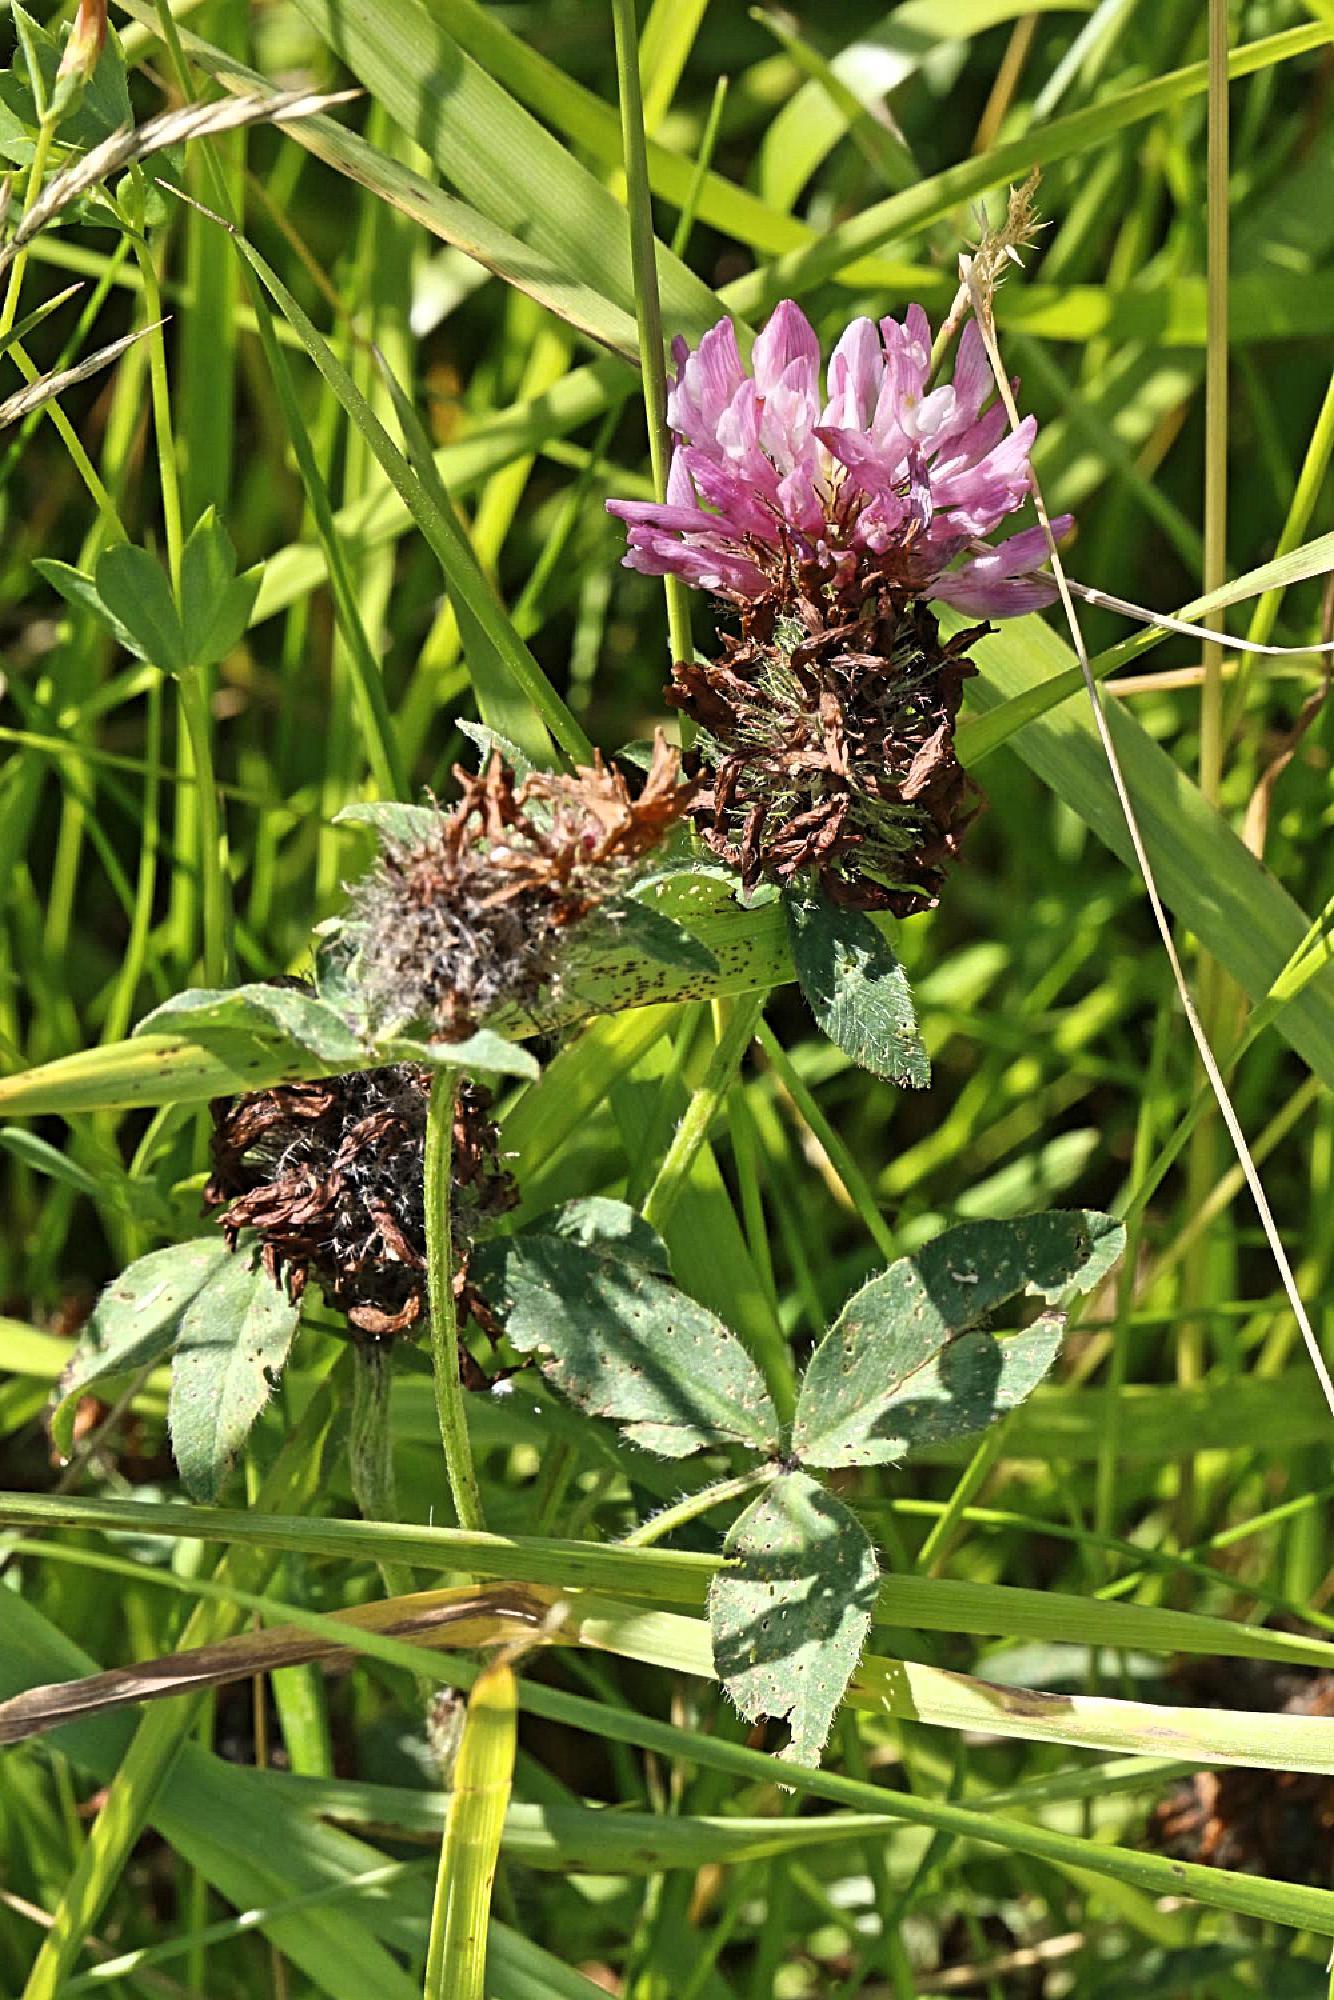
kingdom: Plantae
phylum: Tracheophyta
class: Magnoliopsida
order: Fabales
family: Fabaceae
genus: Trifolium
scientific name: Trifolium pratense
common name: Red clover
